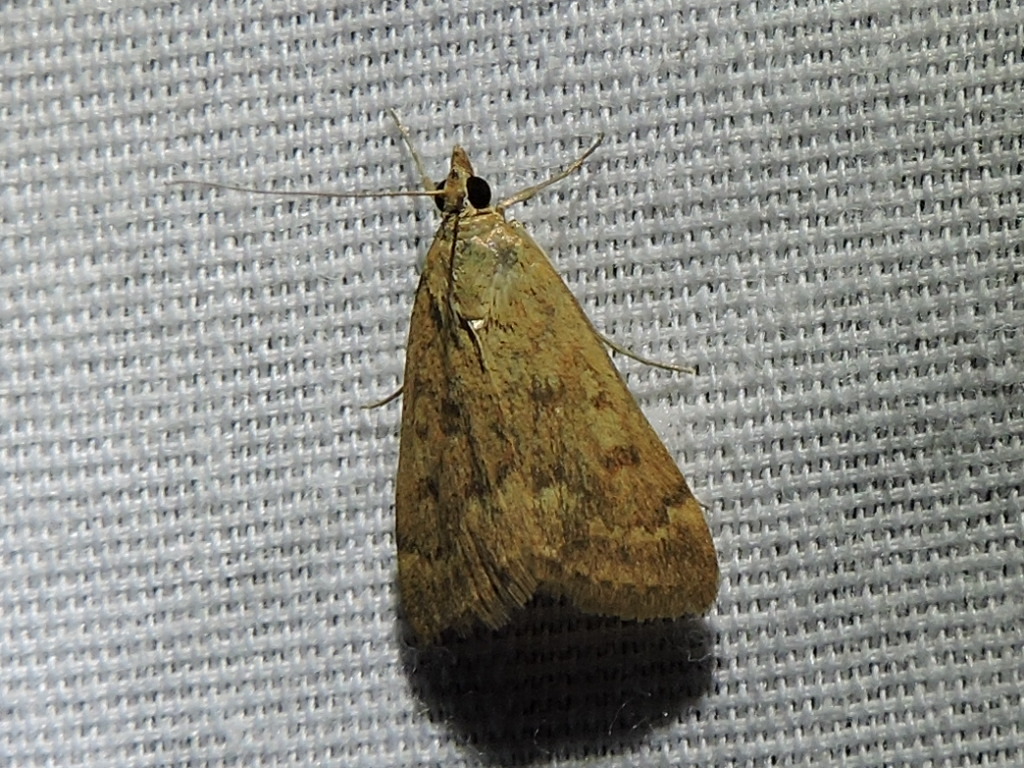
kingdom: Animalia
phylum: Arthropoda
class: Insecta
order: Lepidoptera
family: Crambidae
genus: Achyra
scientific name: Achyra rantalis
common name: Garden webworm
